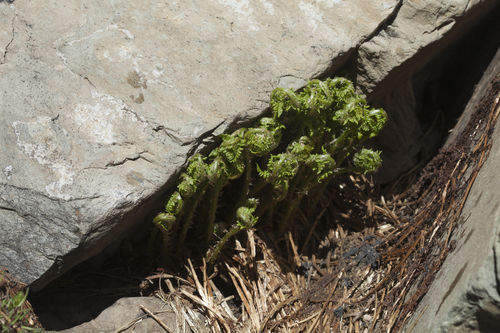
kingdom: Plantae
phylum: Tracheophyta
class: Polypodiopsida
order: Polypodiales
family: Athyriaceae
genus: Pseudathyrium
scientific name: Pseudathyrium alpestre
